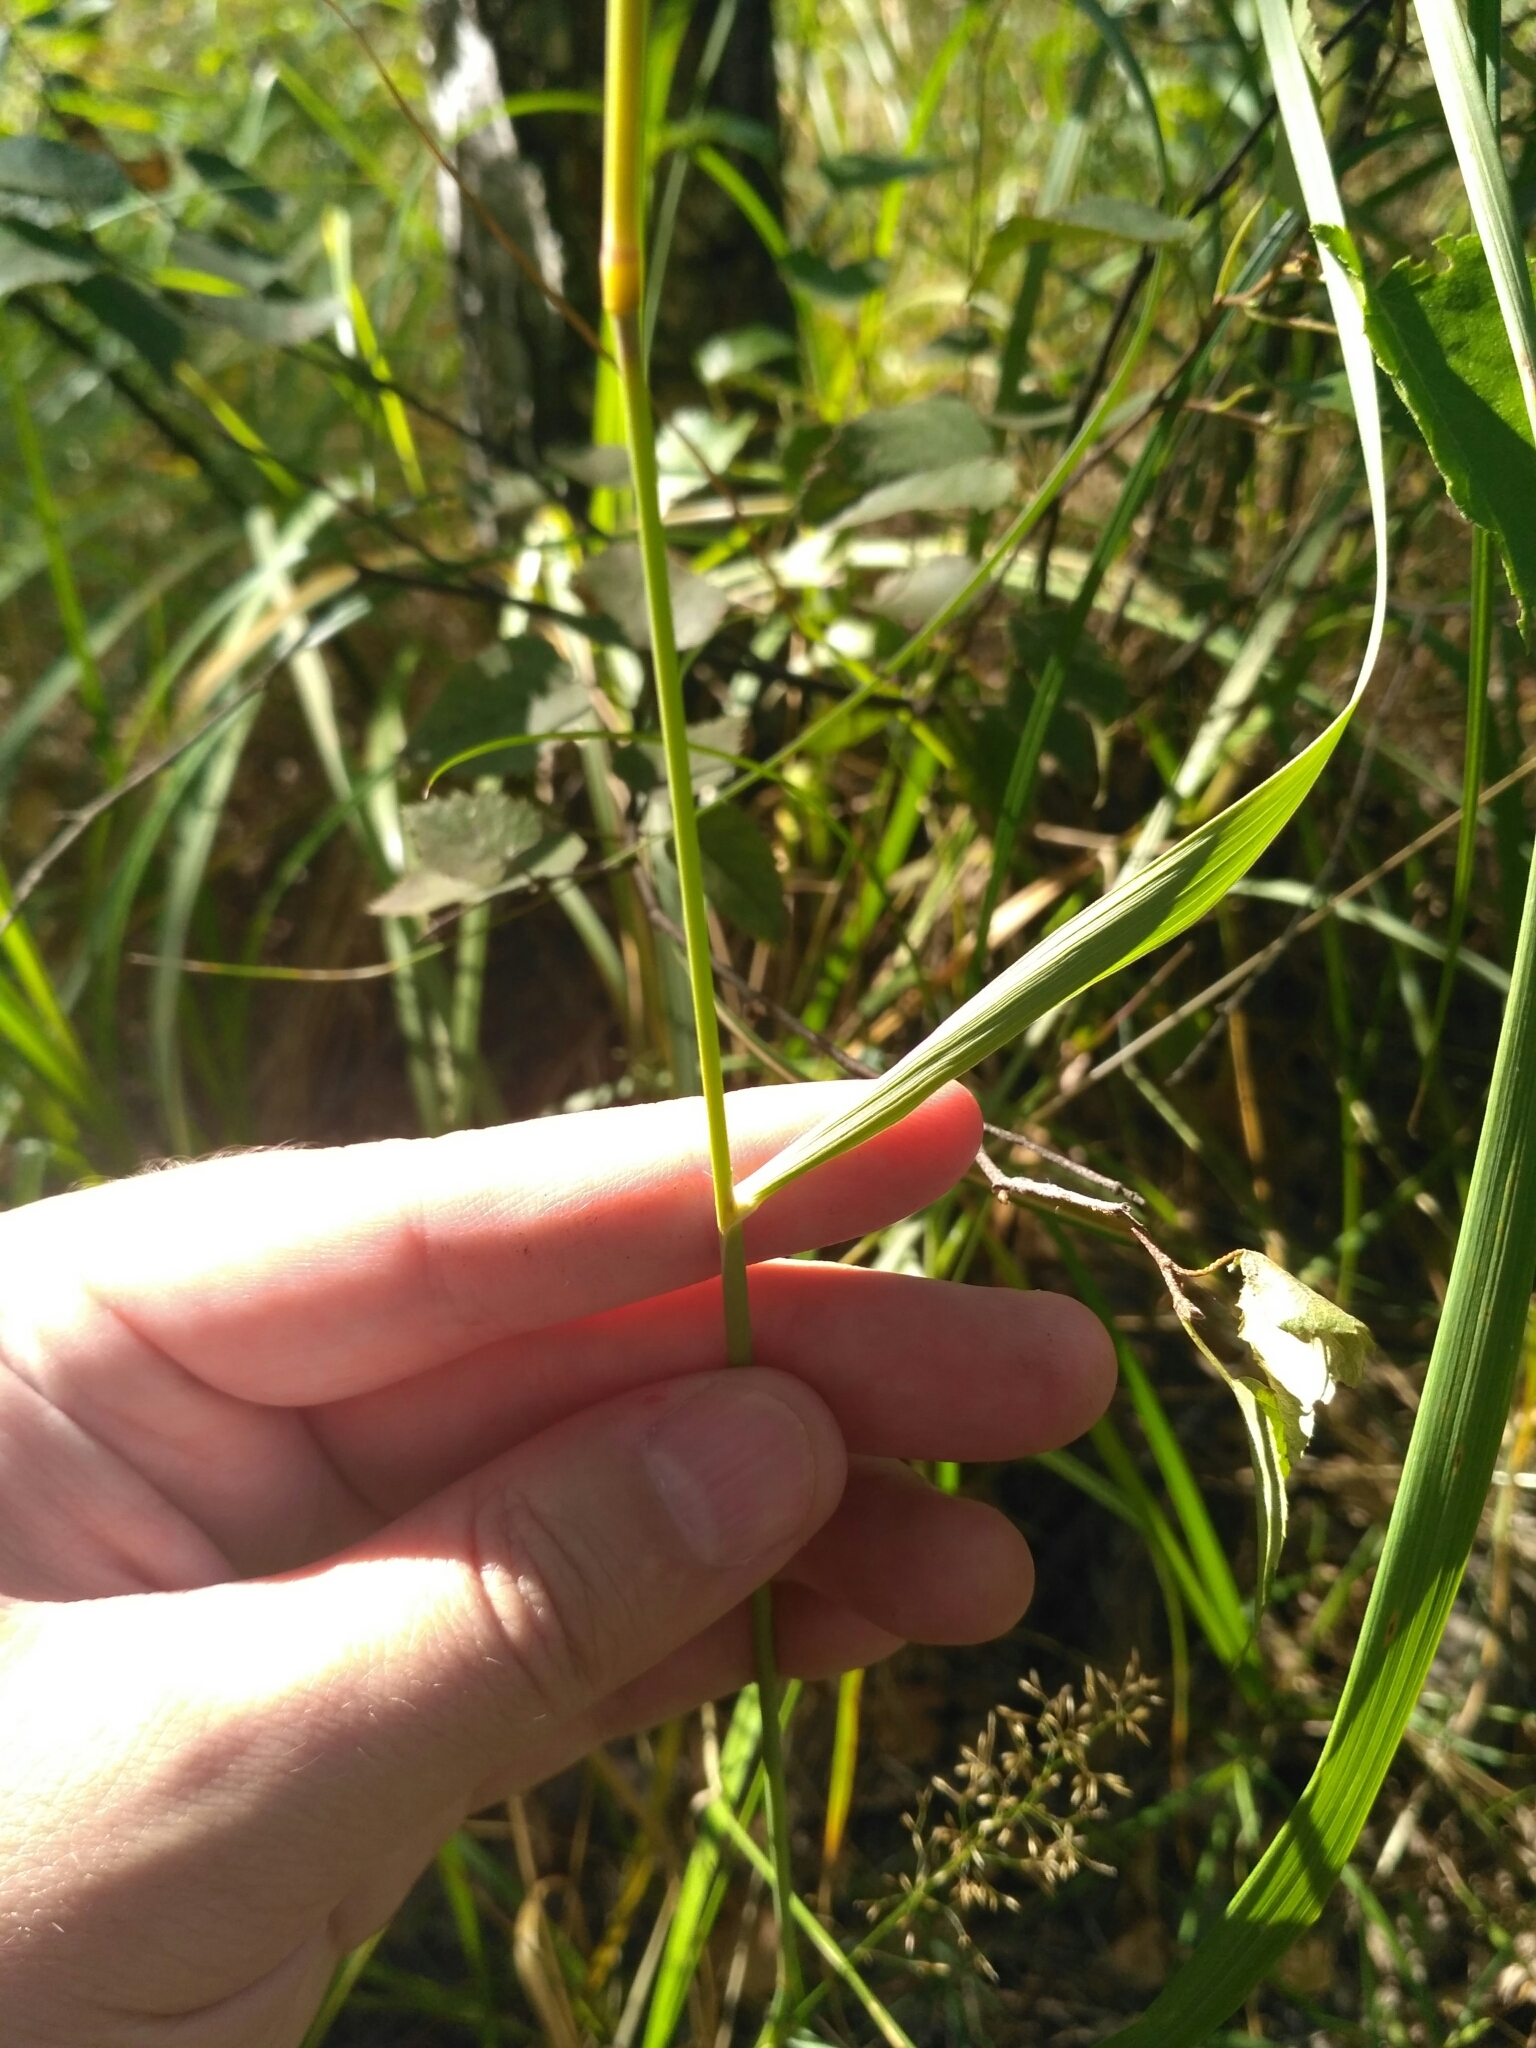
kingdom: Plantae
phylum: Tracheophyta
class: Liliopsida
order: Poales
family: Poaceae
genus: Calamagrostis
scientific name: Calamagrostis epigejos
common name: Wood small-reed
